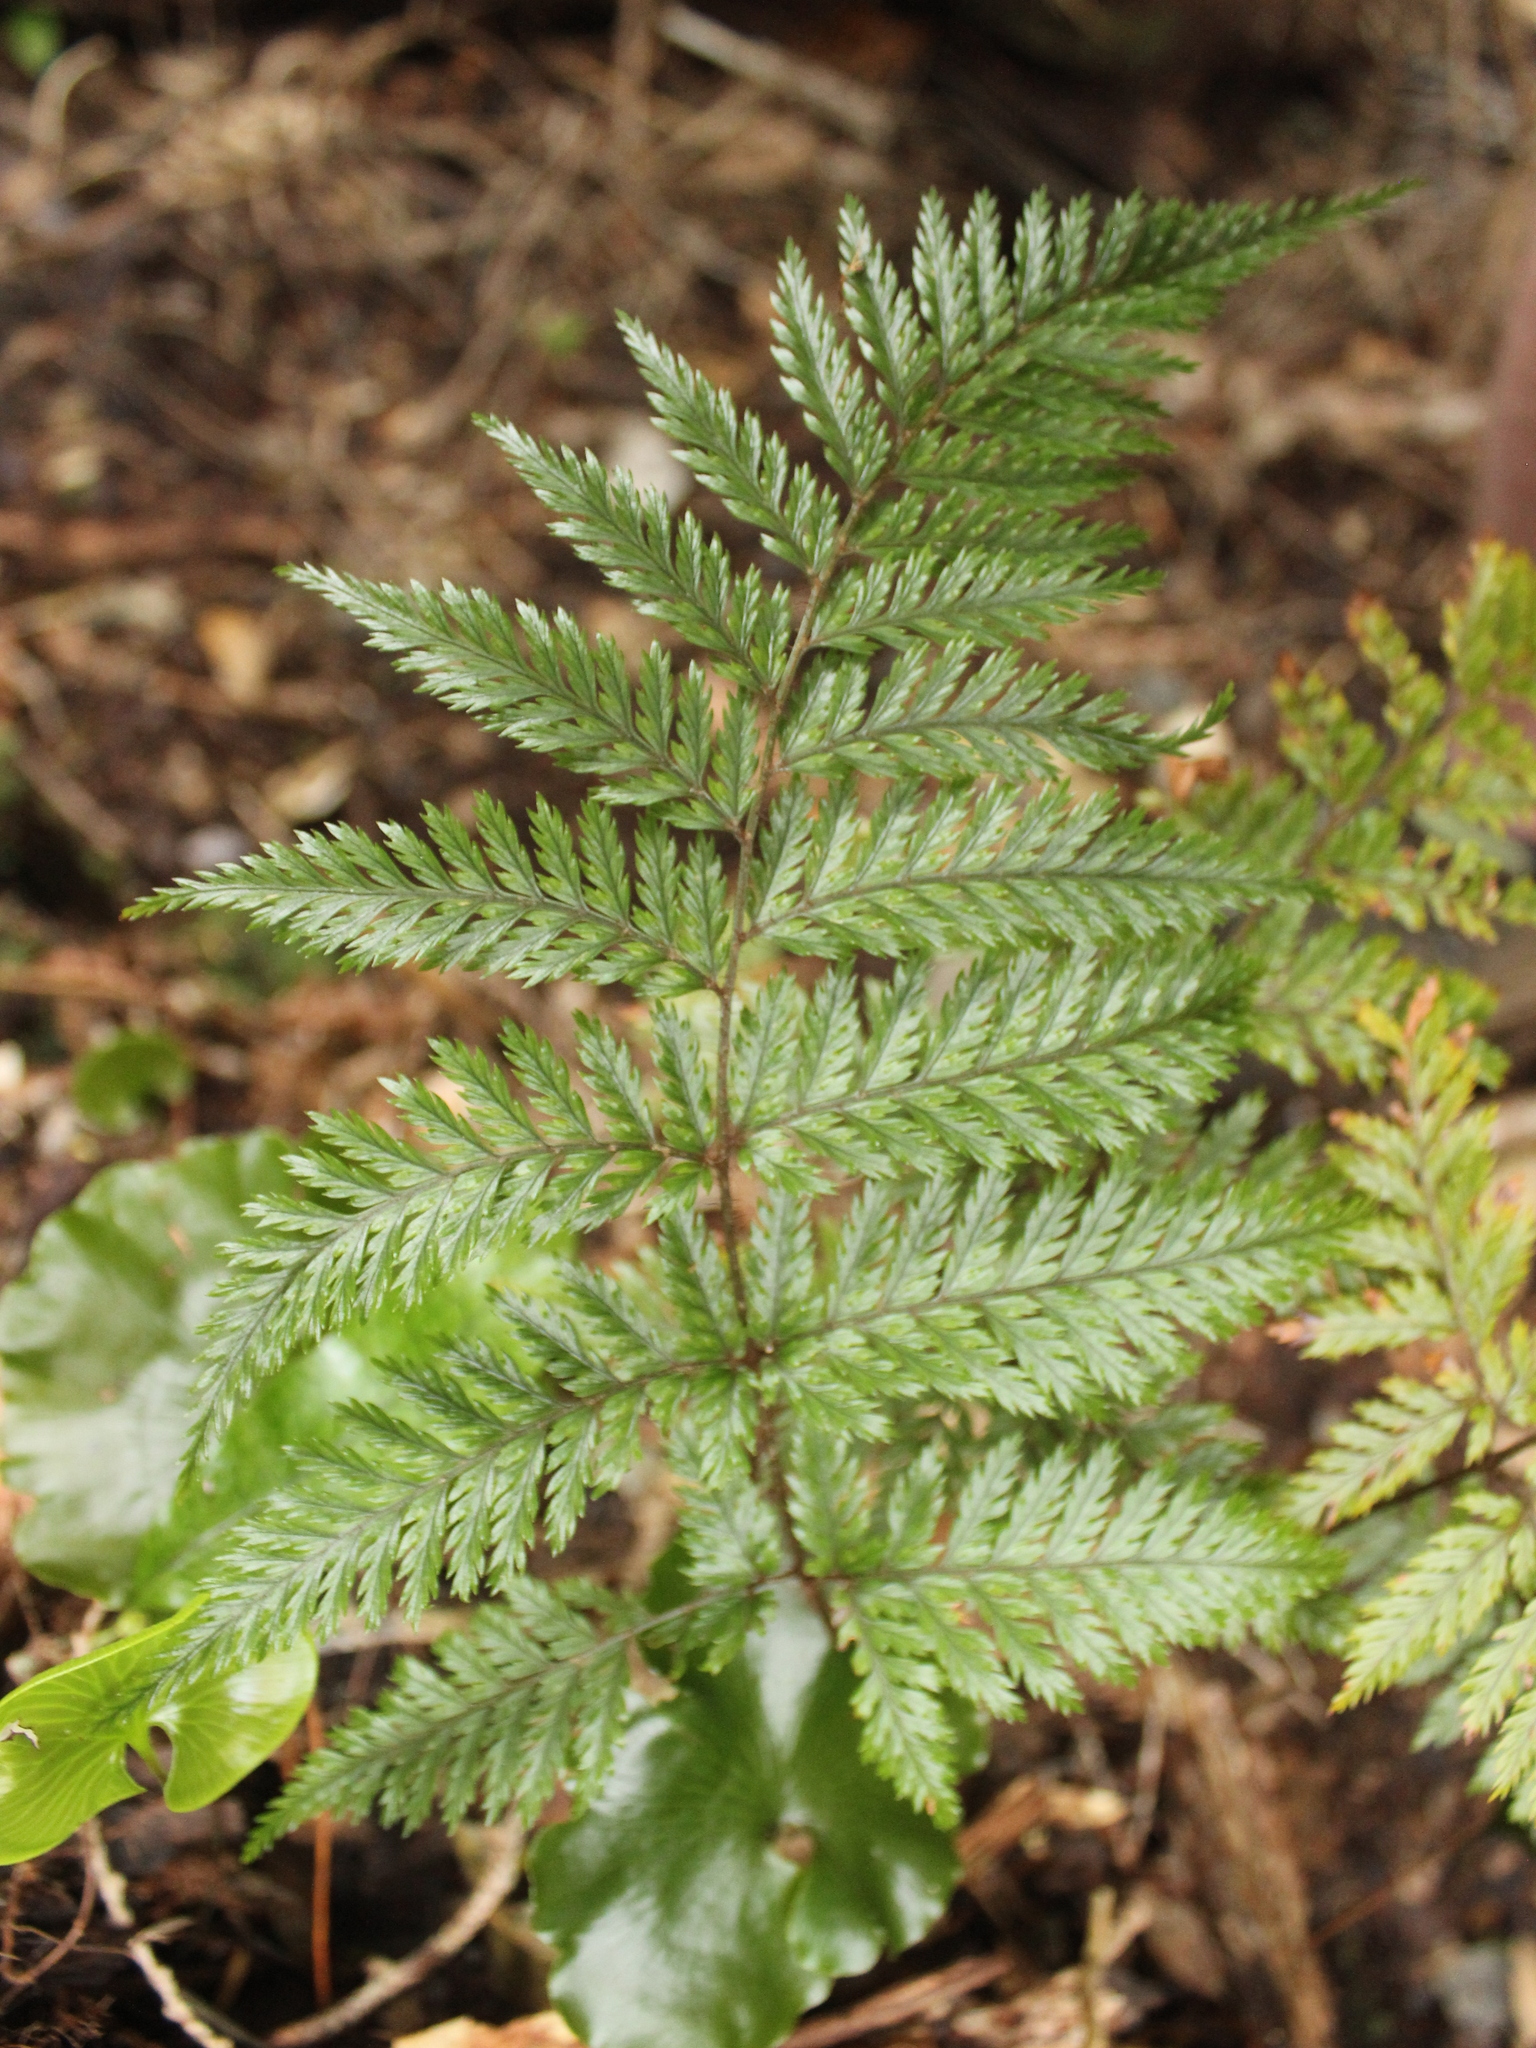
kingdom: Plantae
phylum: Tracheophyta
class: Polypodiopsida
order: Polypodiales
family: Dryopteridaceae
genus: Lastreopsis
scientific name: Lastreopsis hispida
